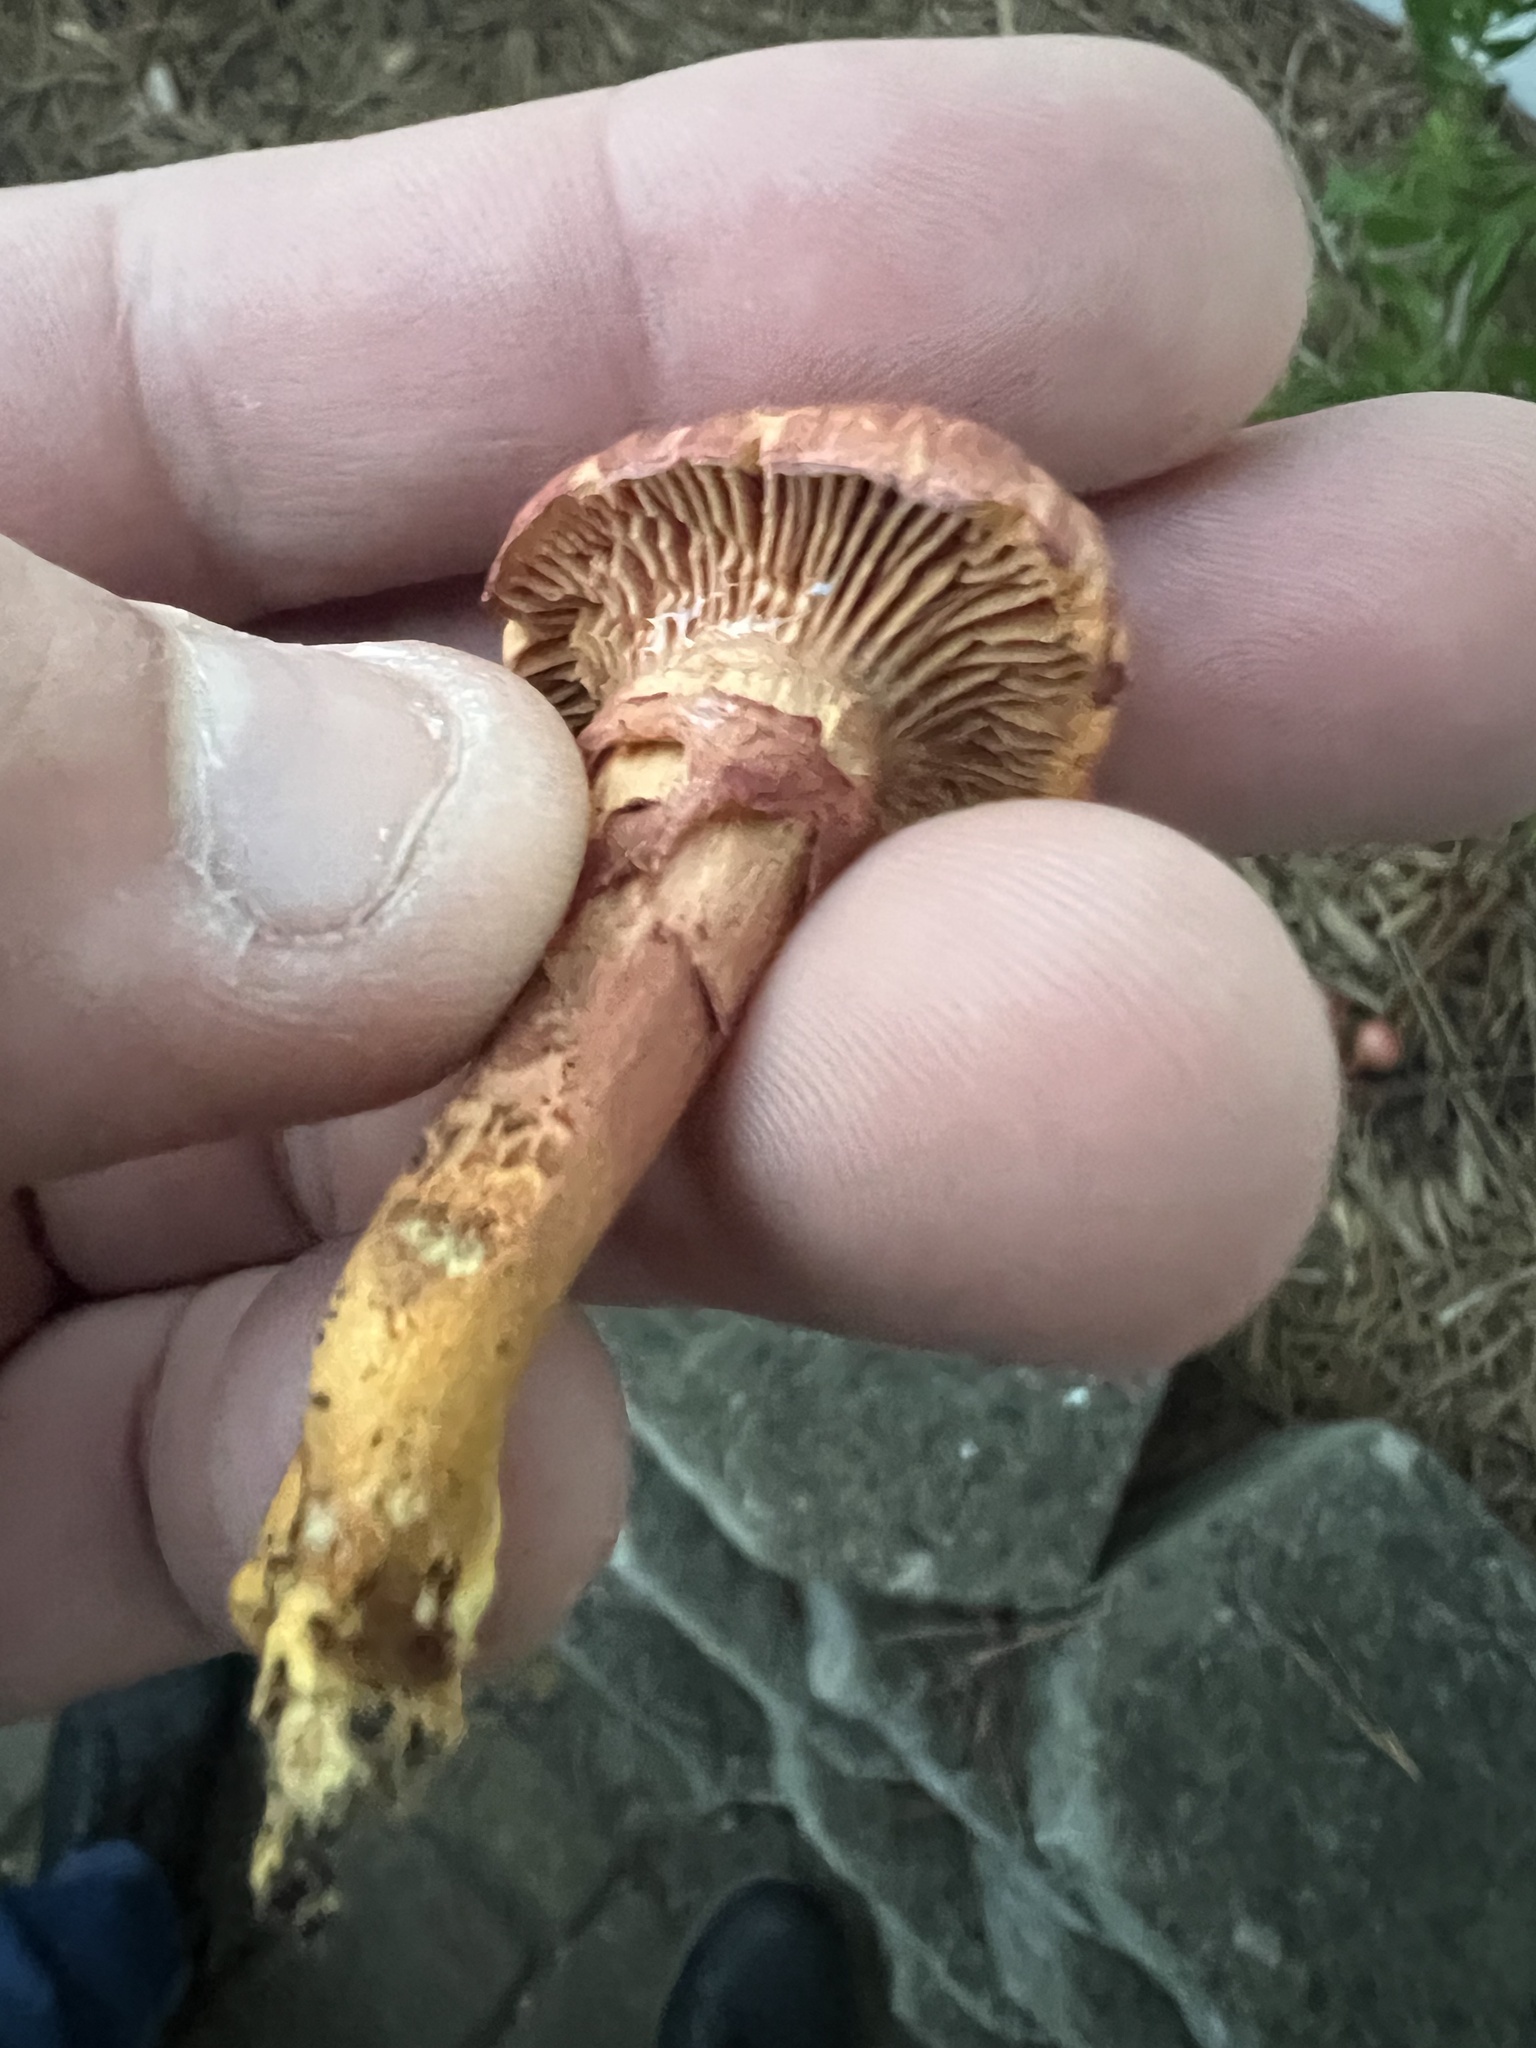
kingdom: Fungi
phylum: Basidiomycota
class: Agaricomycetes
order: Boletales
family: Gomphidiaceae
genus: Chroogomphus
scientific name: Chroogomphus vinicolor
